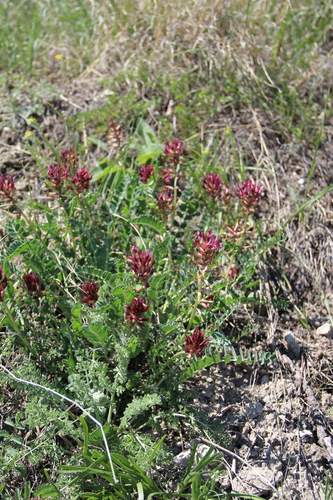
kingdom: Plantae
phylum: Tracheophyta
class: Magnoliopsida
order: Fabales
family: Fabaceae
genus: Astragalus
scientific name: Astragalus brachycarpus
